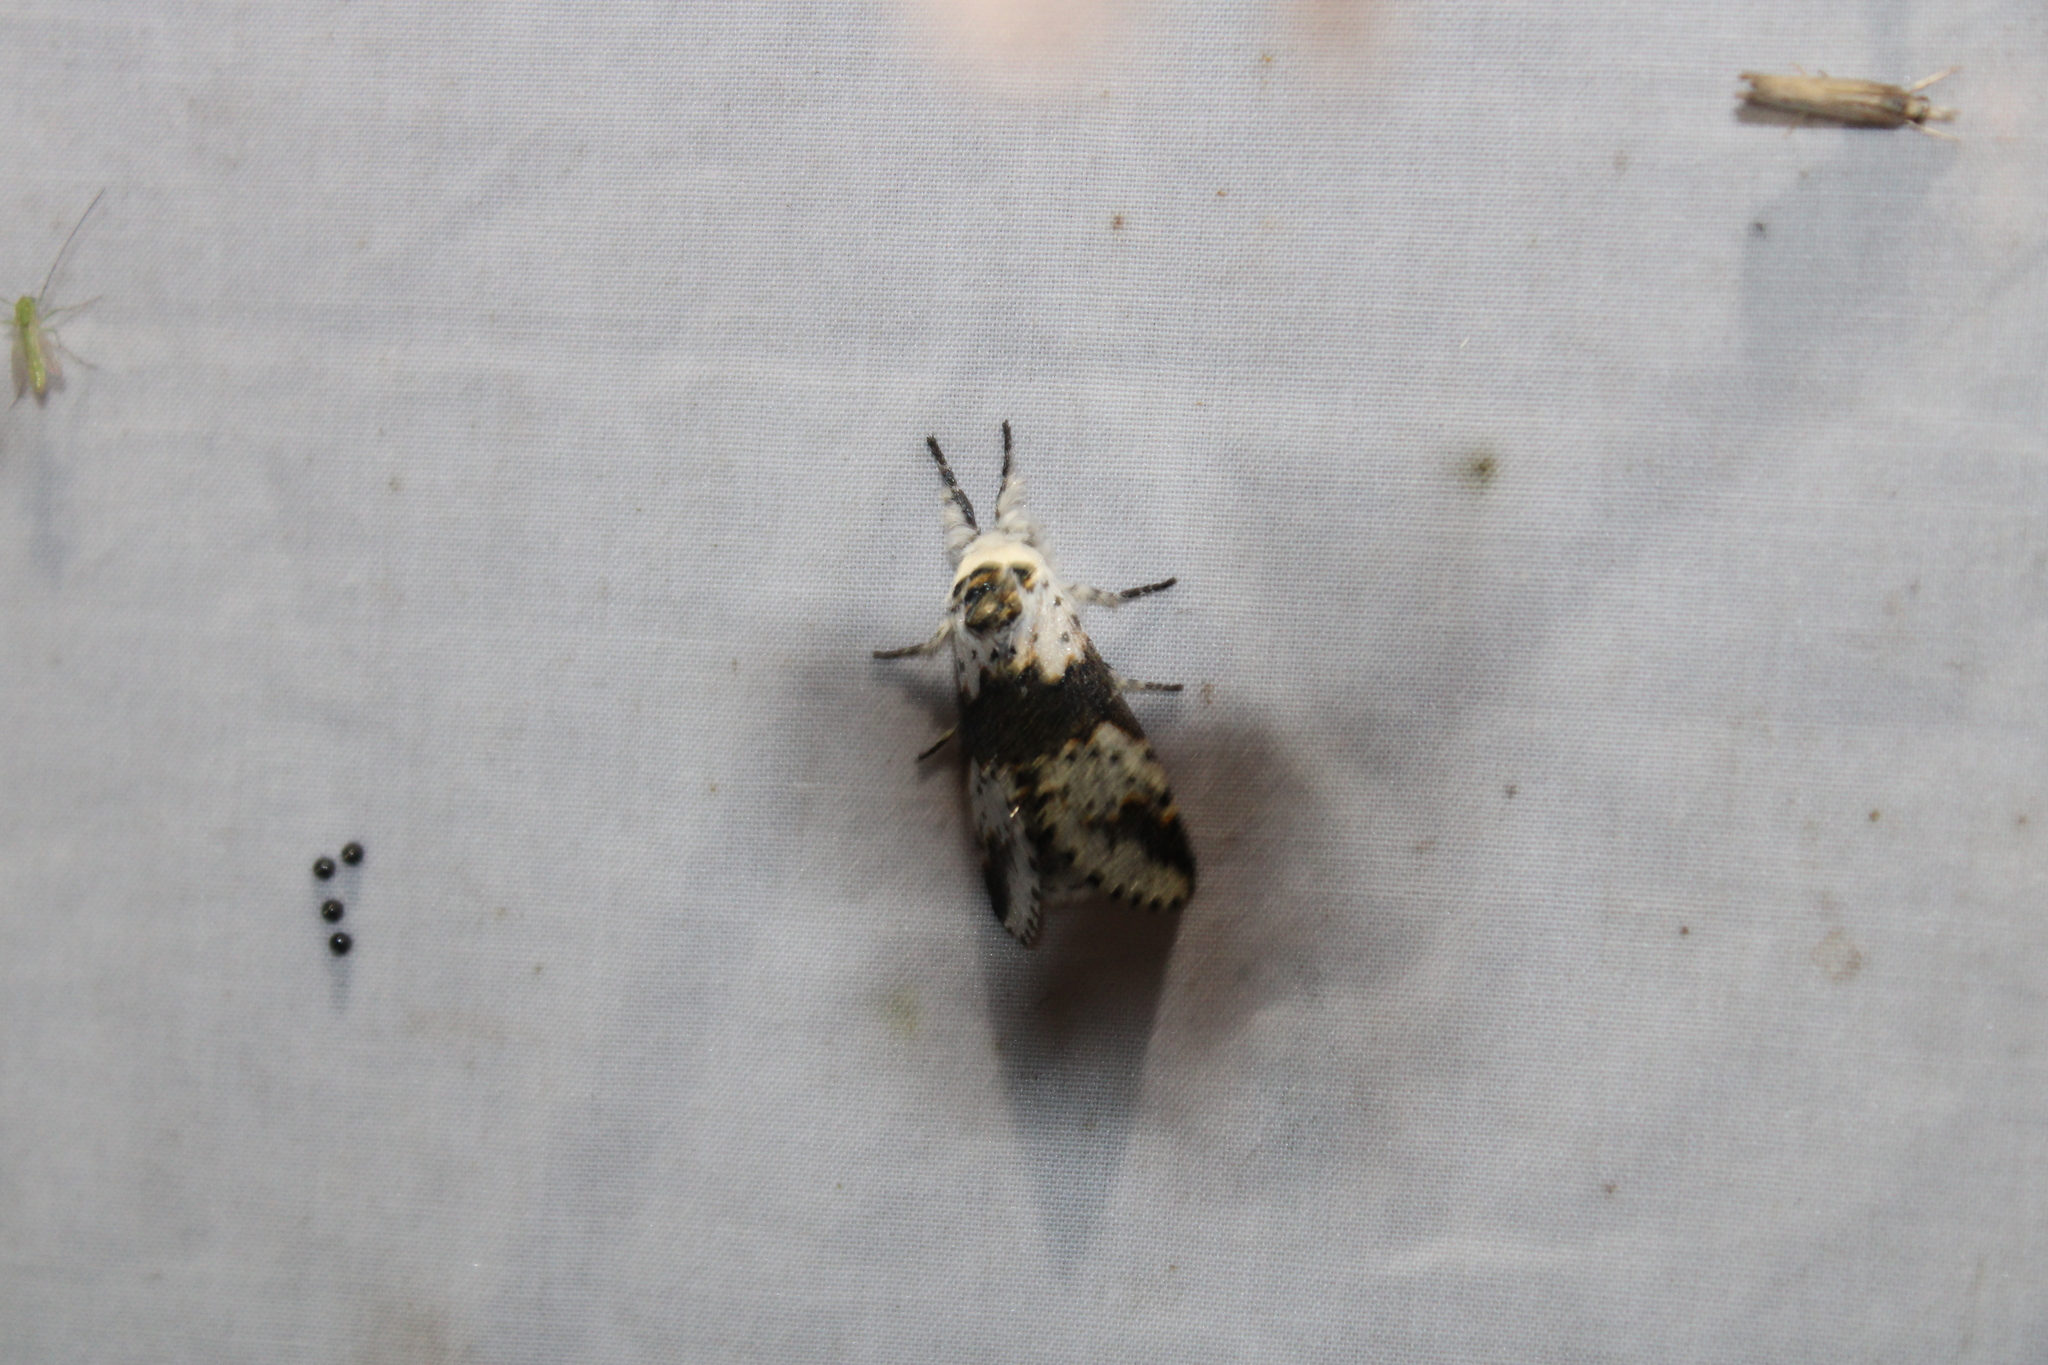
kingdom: Animalia
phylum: Arthropoda
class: Insecta
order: Lepidoptera
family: Notodontidae
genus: Furcula
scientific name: Furcula borealis
